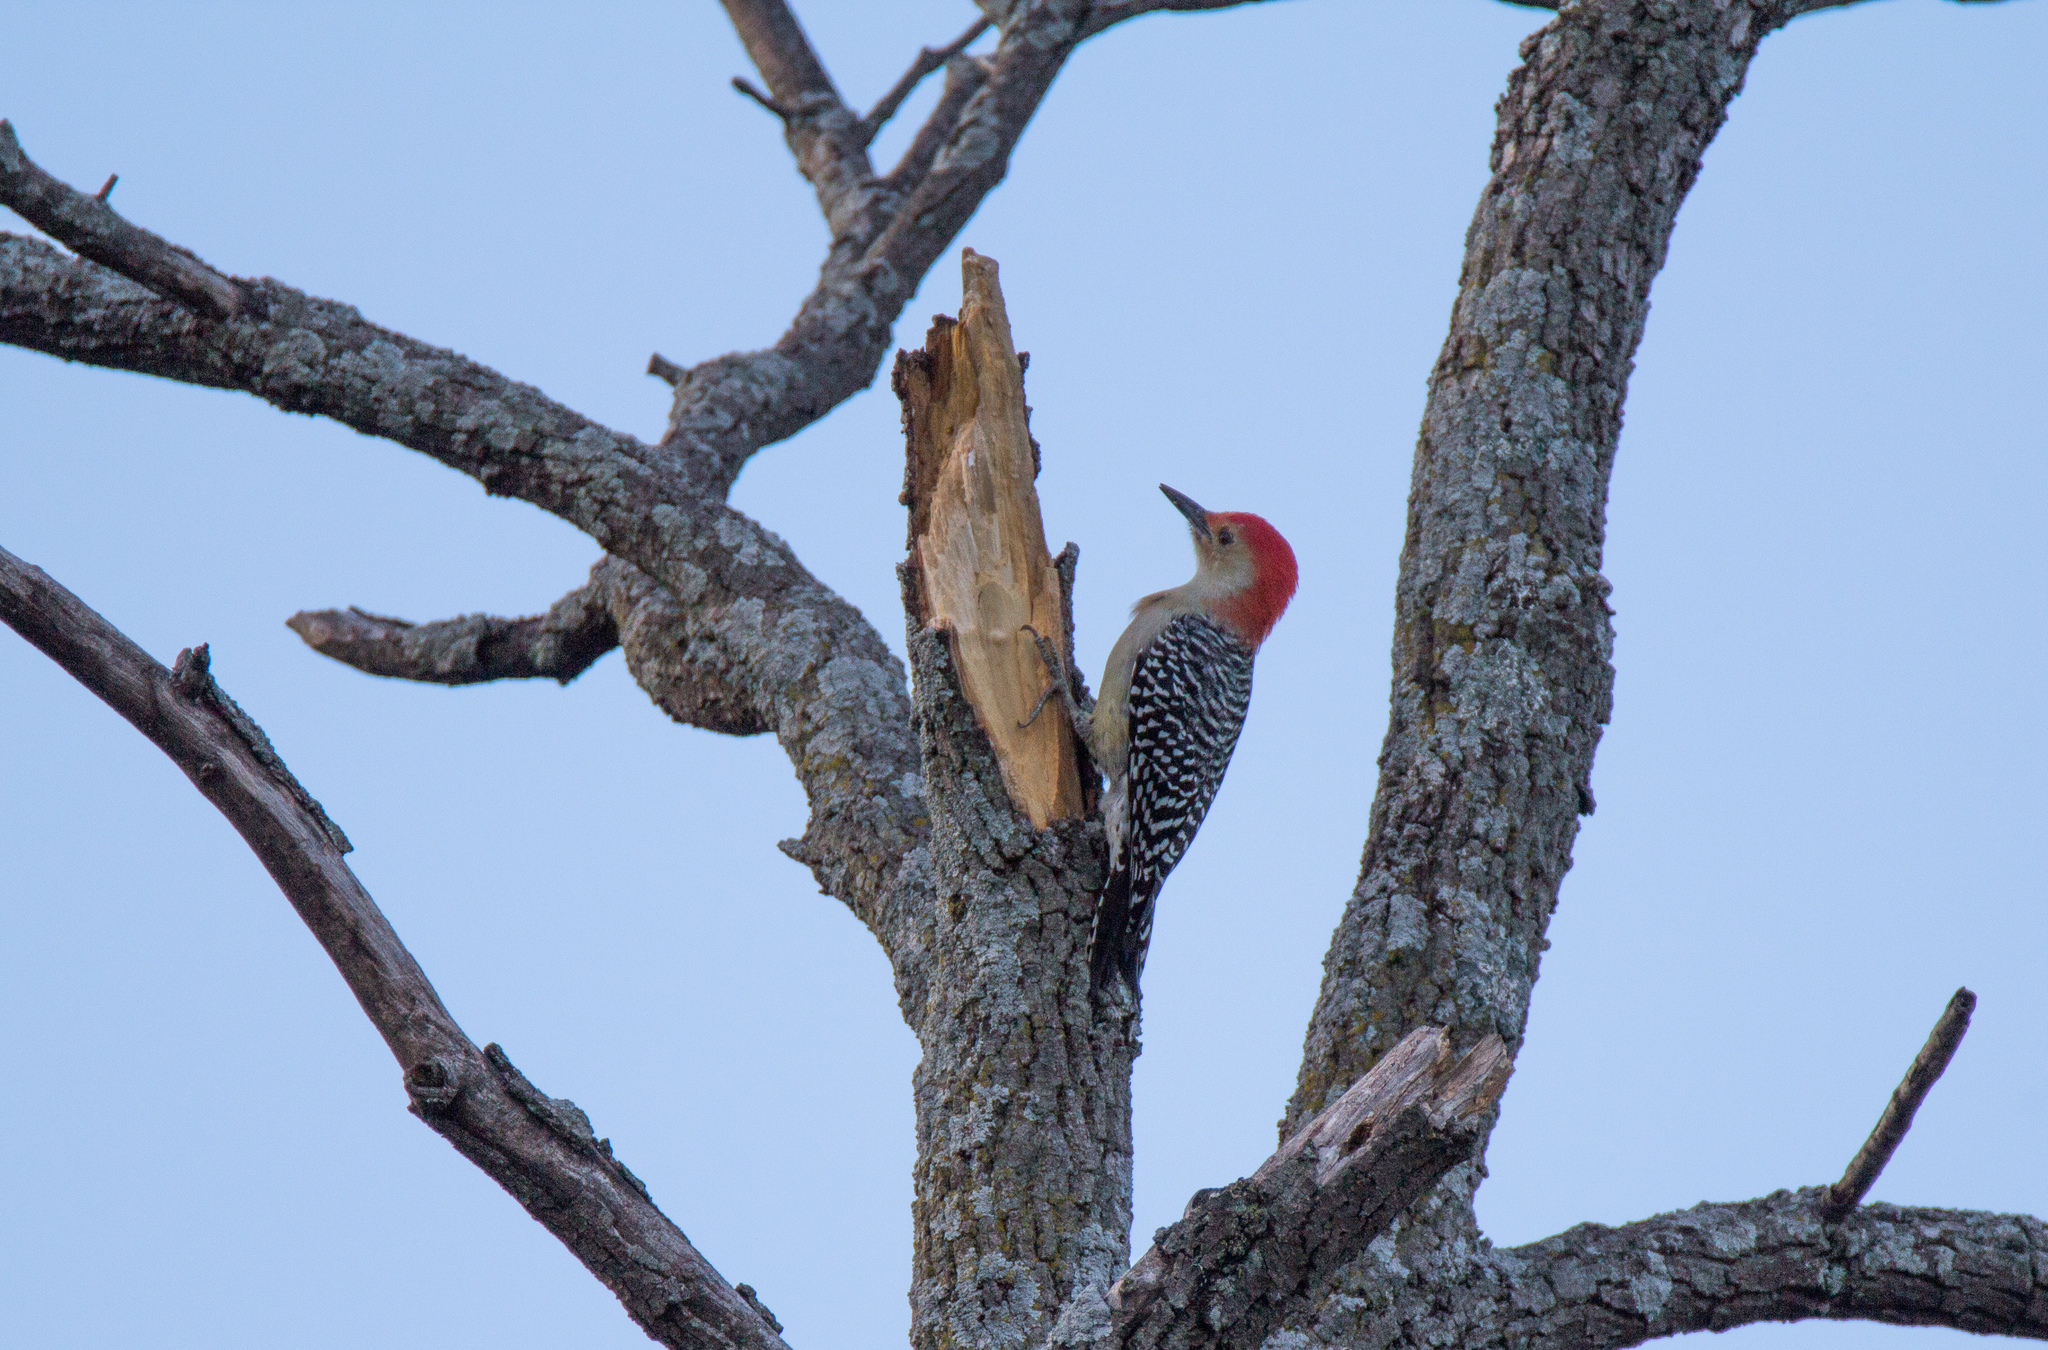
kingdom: Animalia
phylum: Chordata
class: Aves
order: Piciformes
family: Picidae
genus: Melanerpes
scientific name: Melanerpes carolinus
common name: Red-bellied woodpecker
